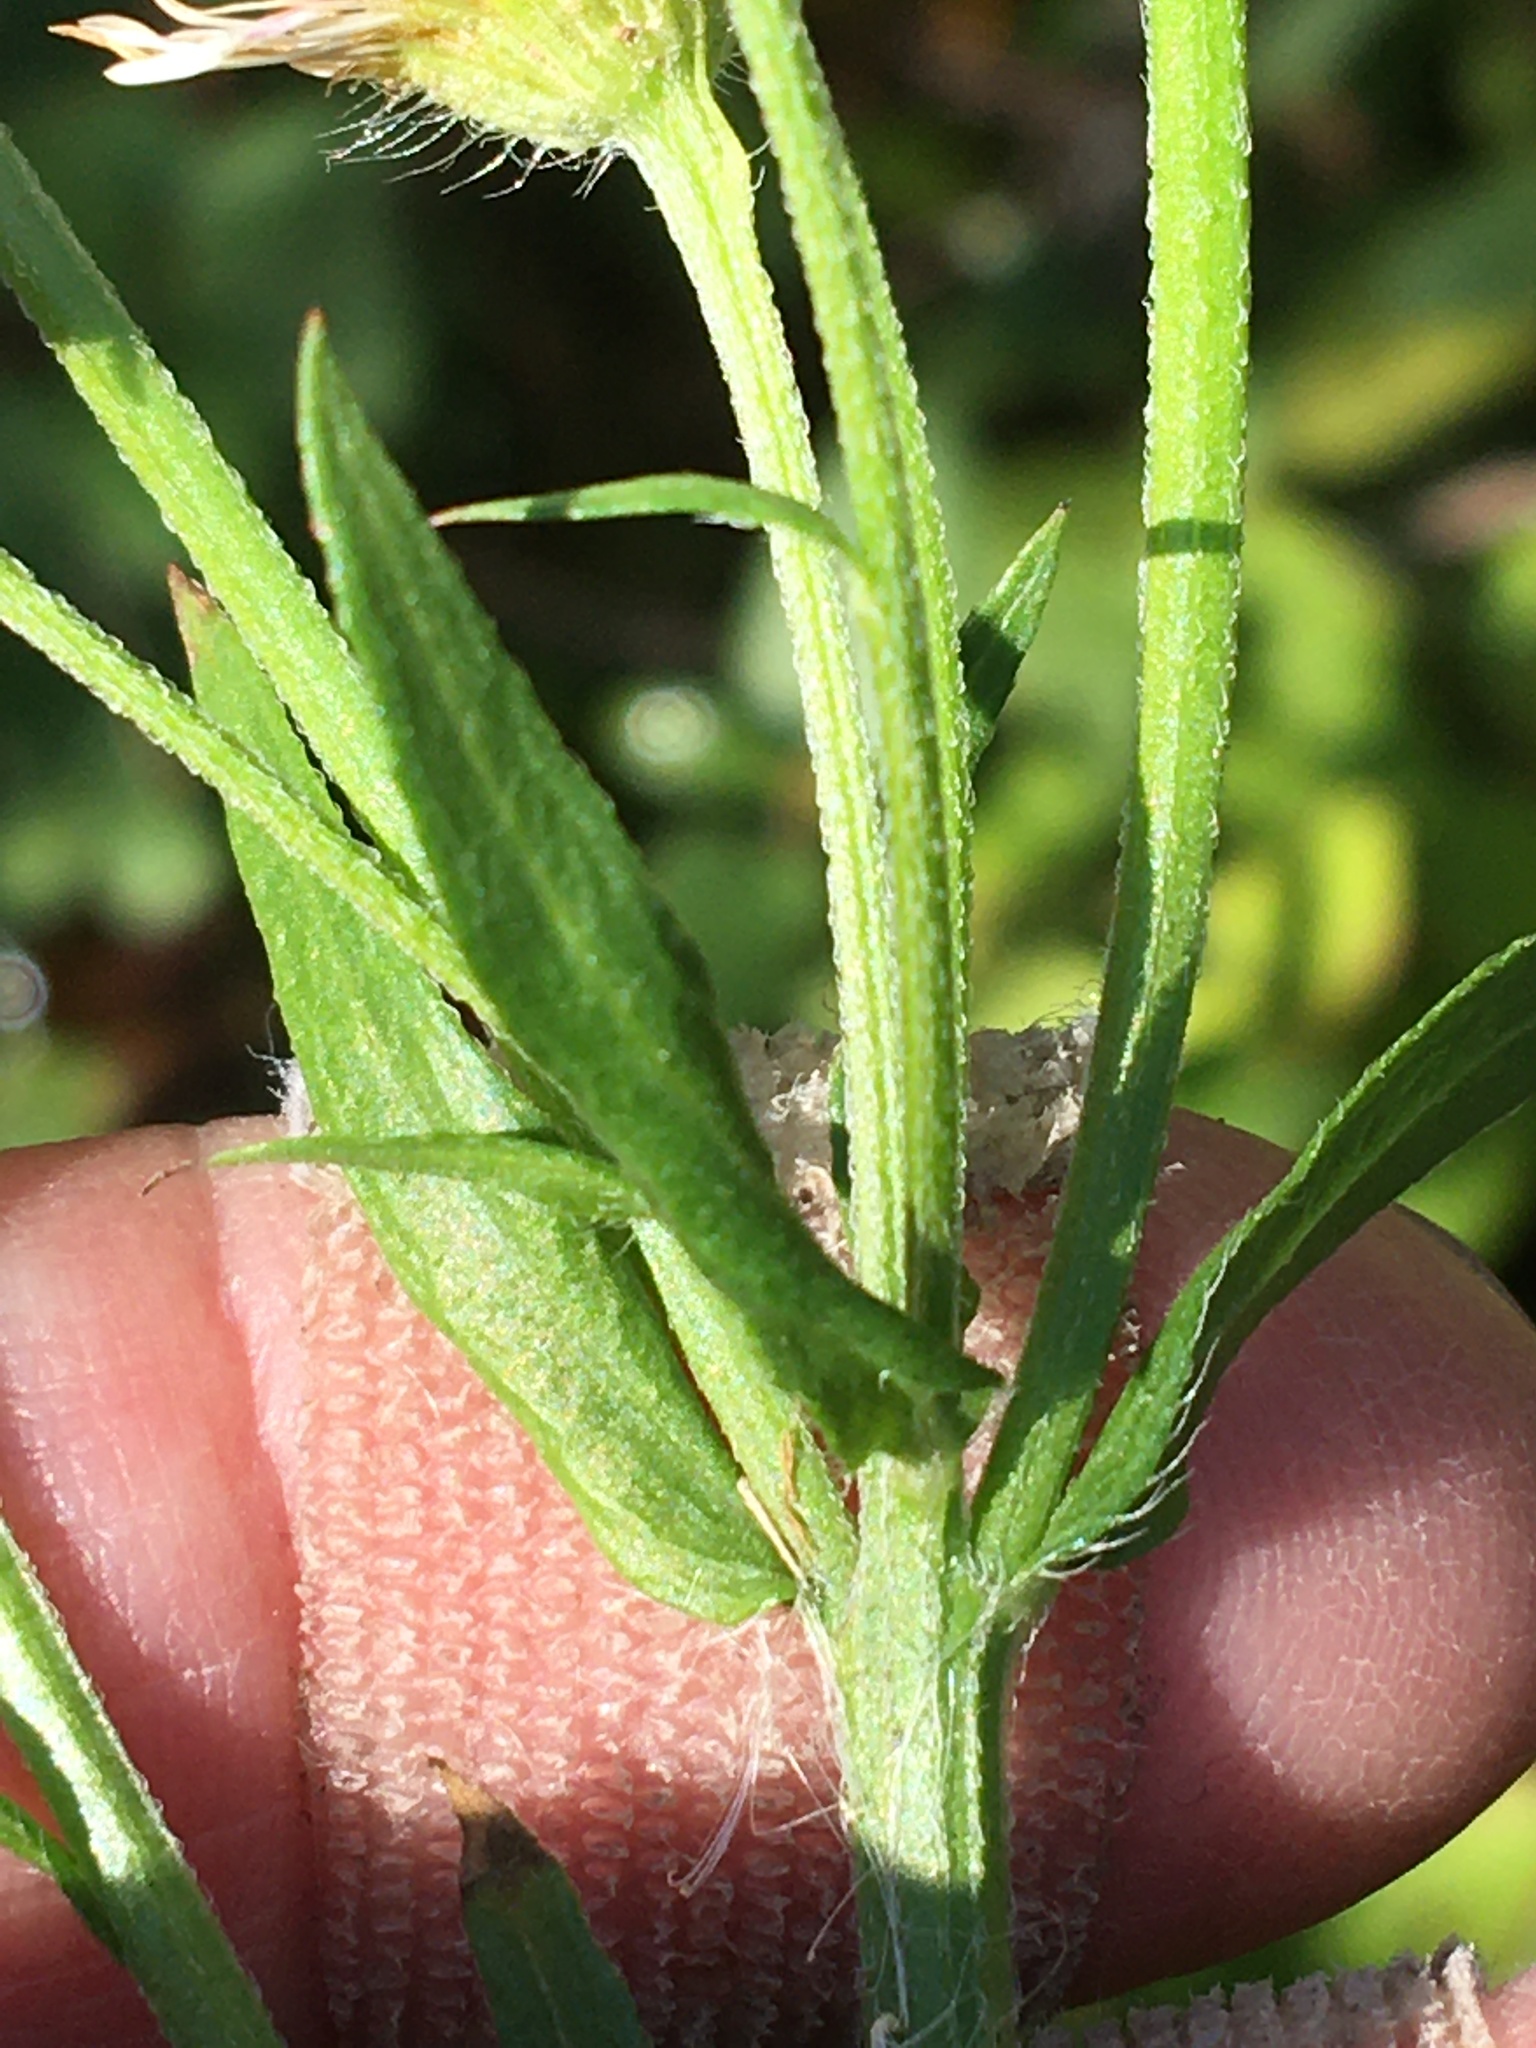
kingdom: Plantae
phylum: Tracheophyta
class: Magnoliopsida
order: Asterales
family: Asteraceae
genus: Erigeron
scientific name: Erigeron strigosus
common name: Common eastern fleabane
